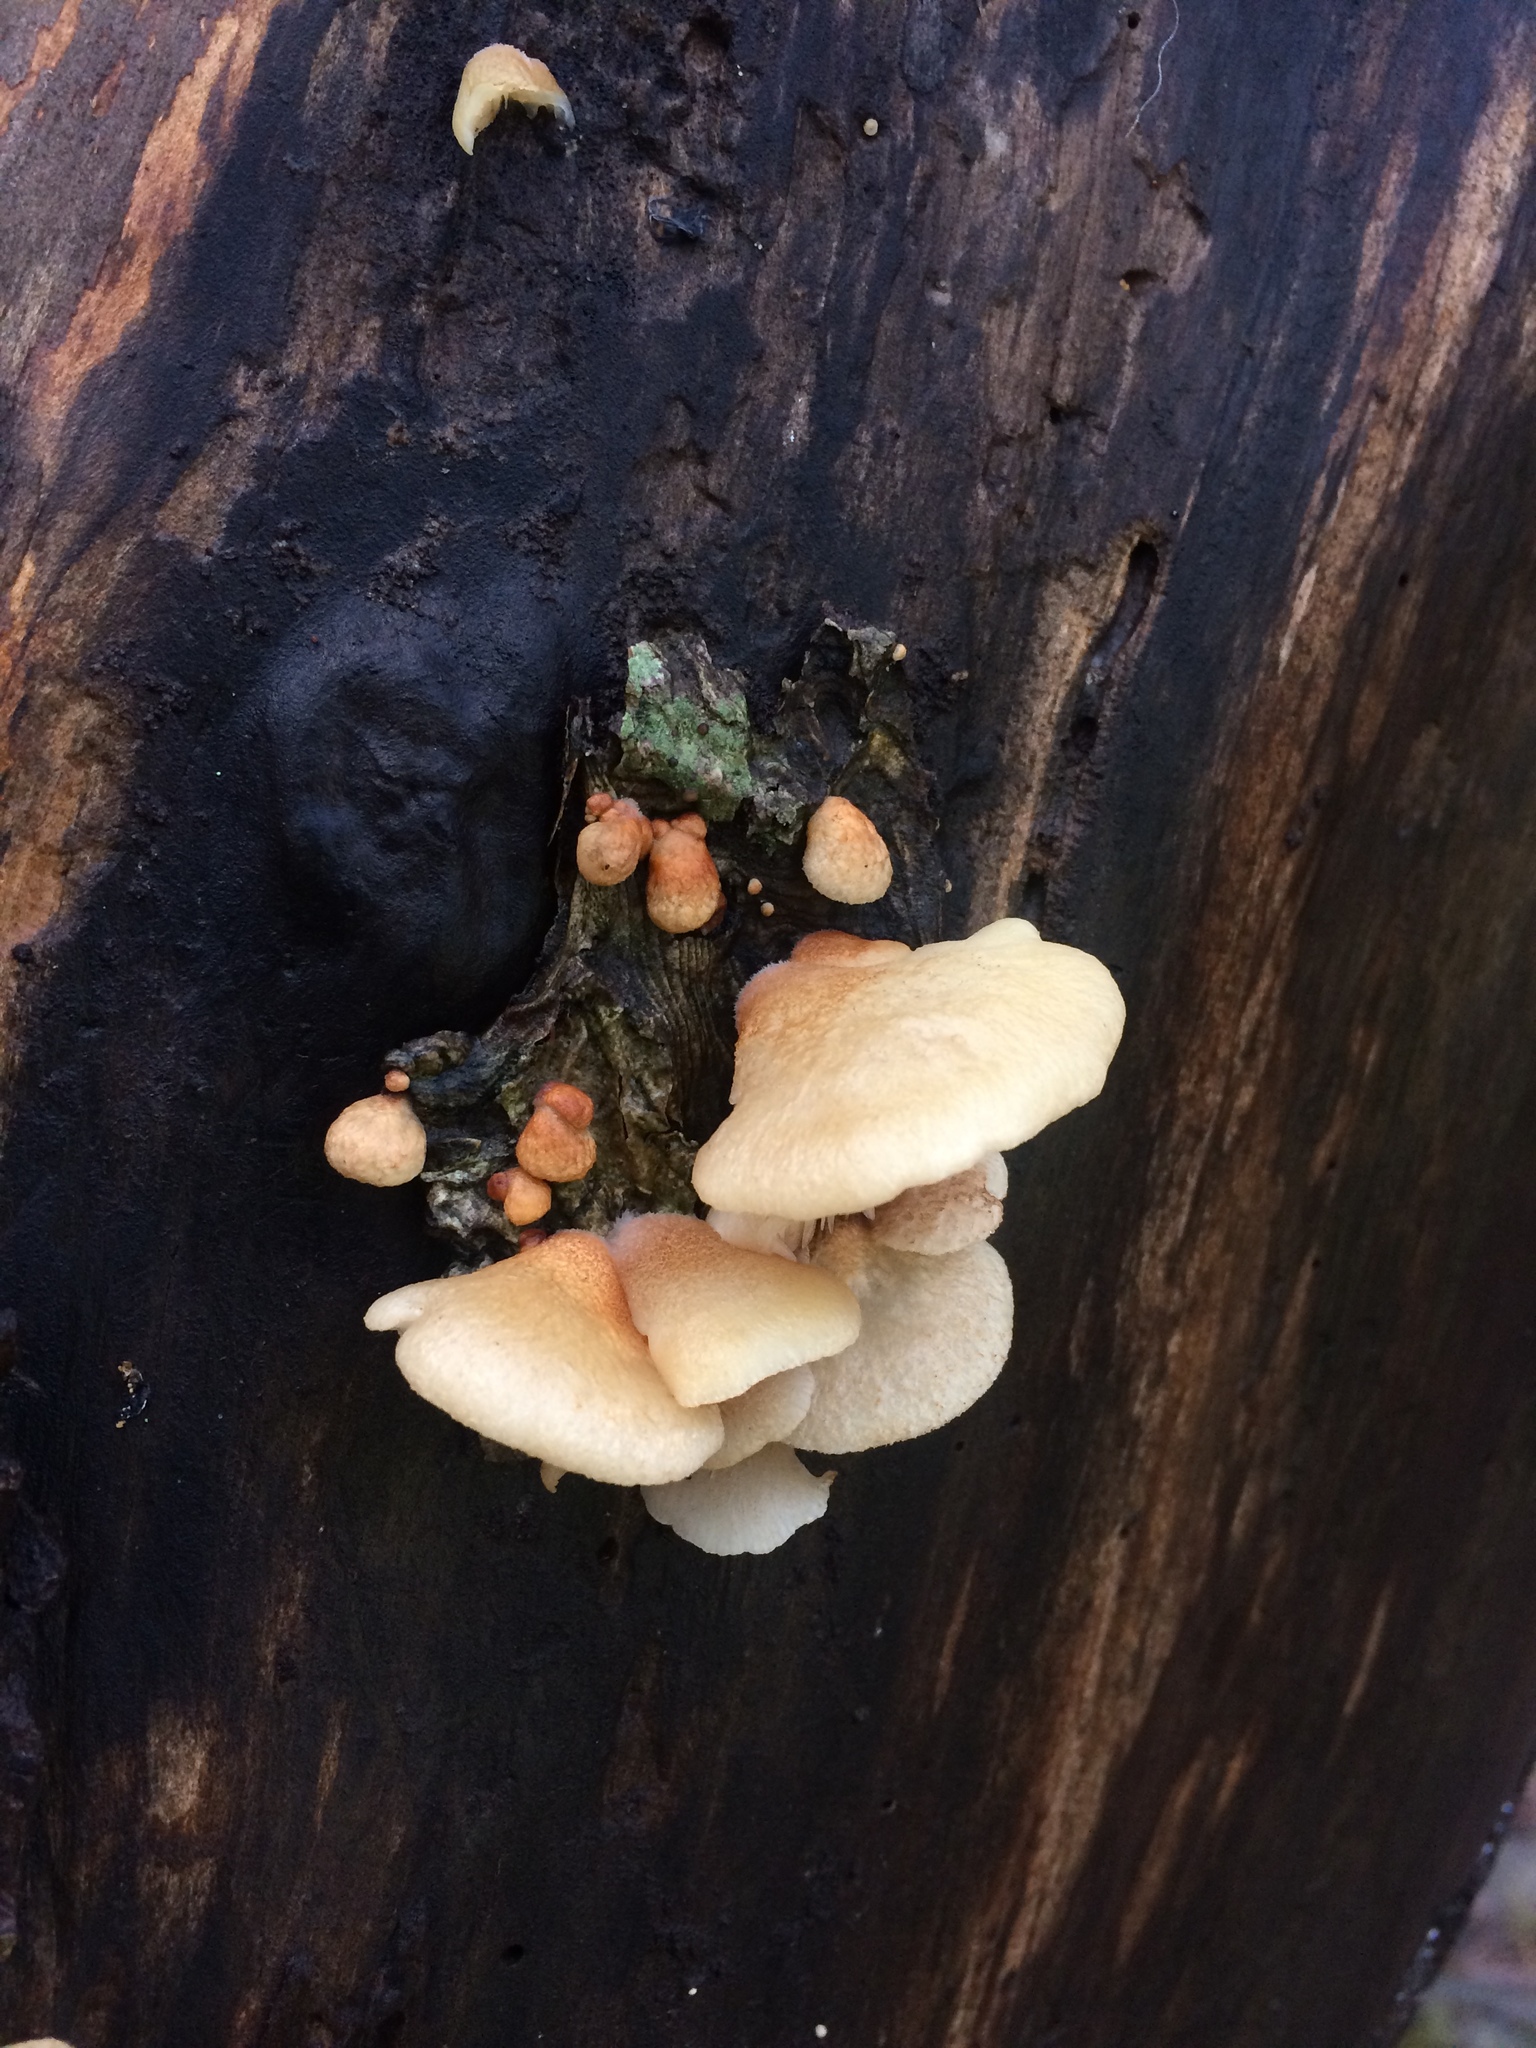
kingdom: Fungi
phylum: Basidiomycota
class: Agaricomycetes
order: Agaricales
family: Crepidotaceae
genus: Crepidotus
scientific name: Crepidotus mollis
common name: Peeling oysterling
